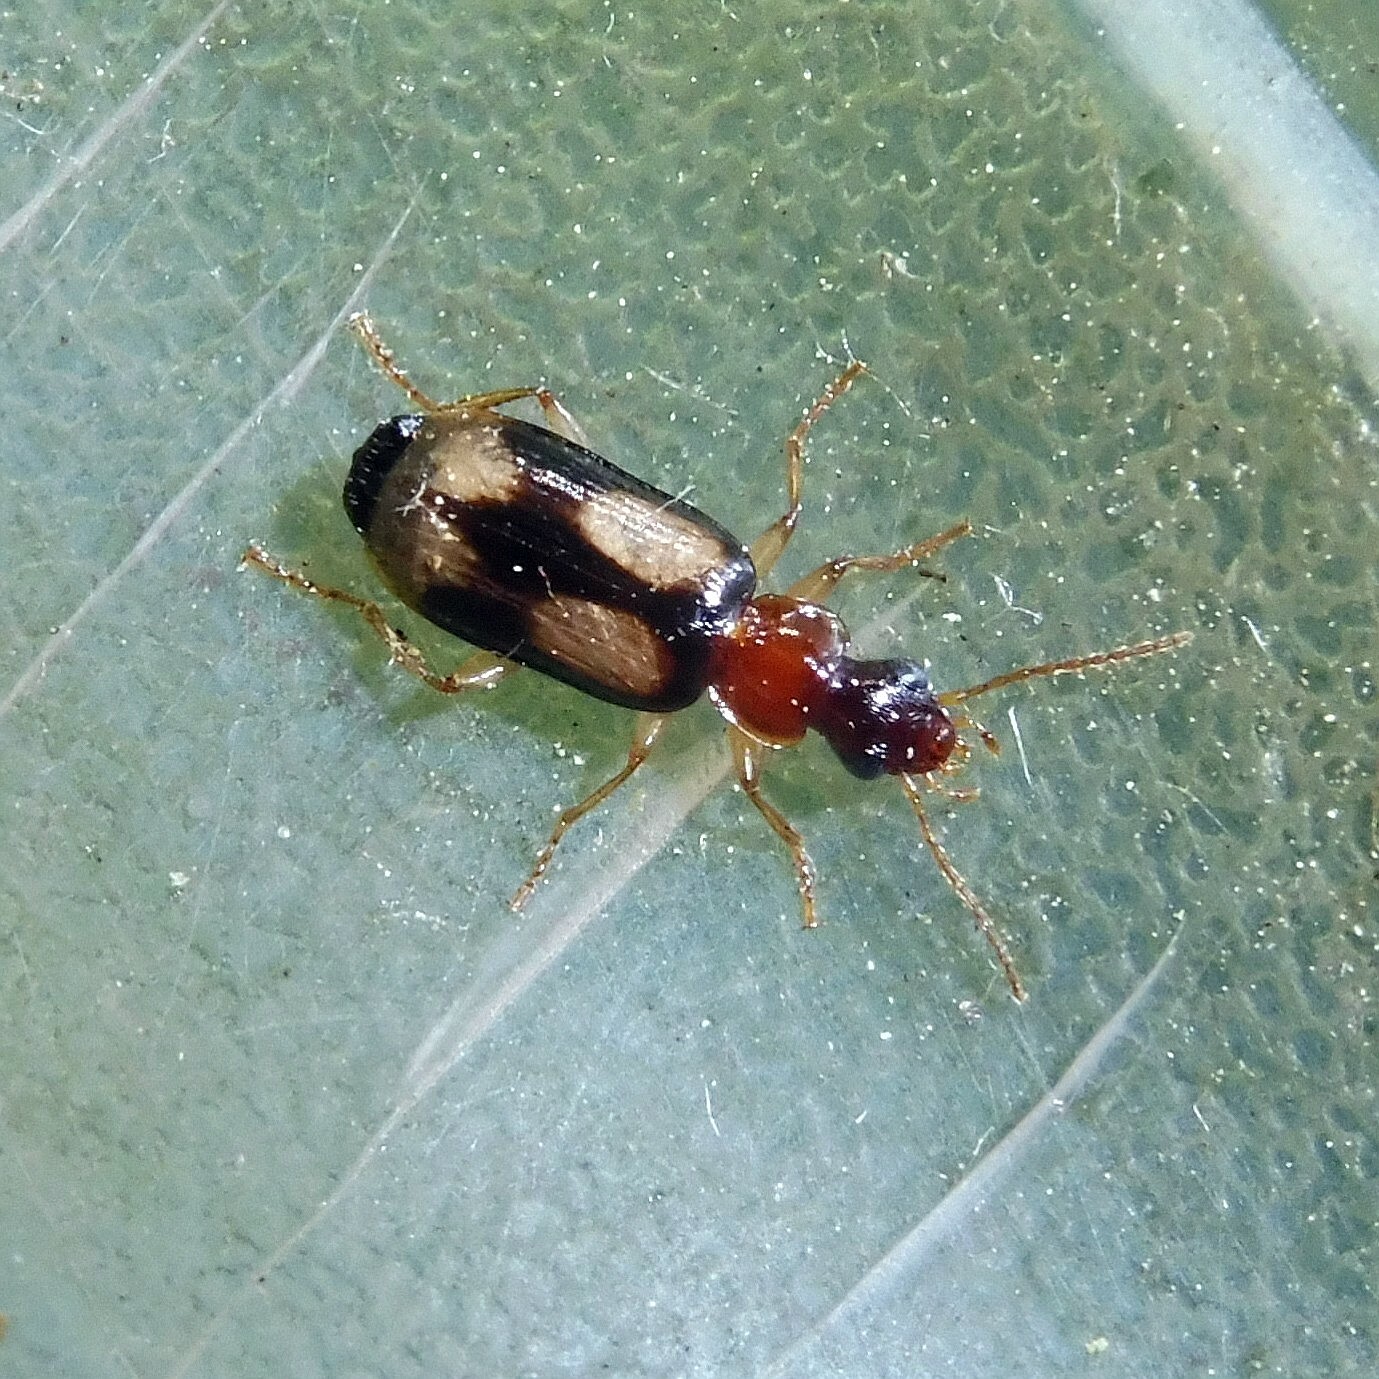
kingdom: Animalia
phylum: Arthropoda
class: Insecta
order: Coleoptera
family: Carabidae
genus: Dromius
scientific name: Dromius quadrimaculatus
